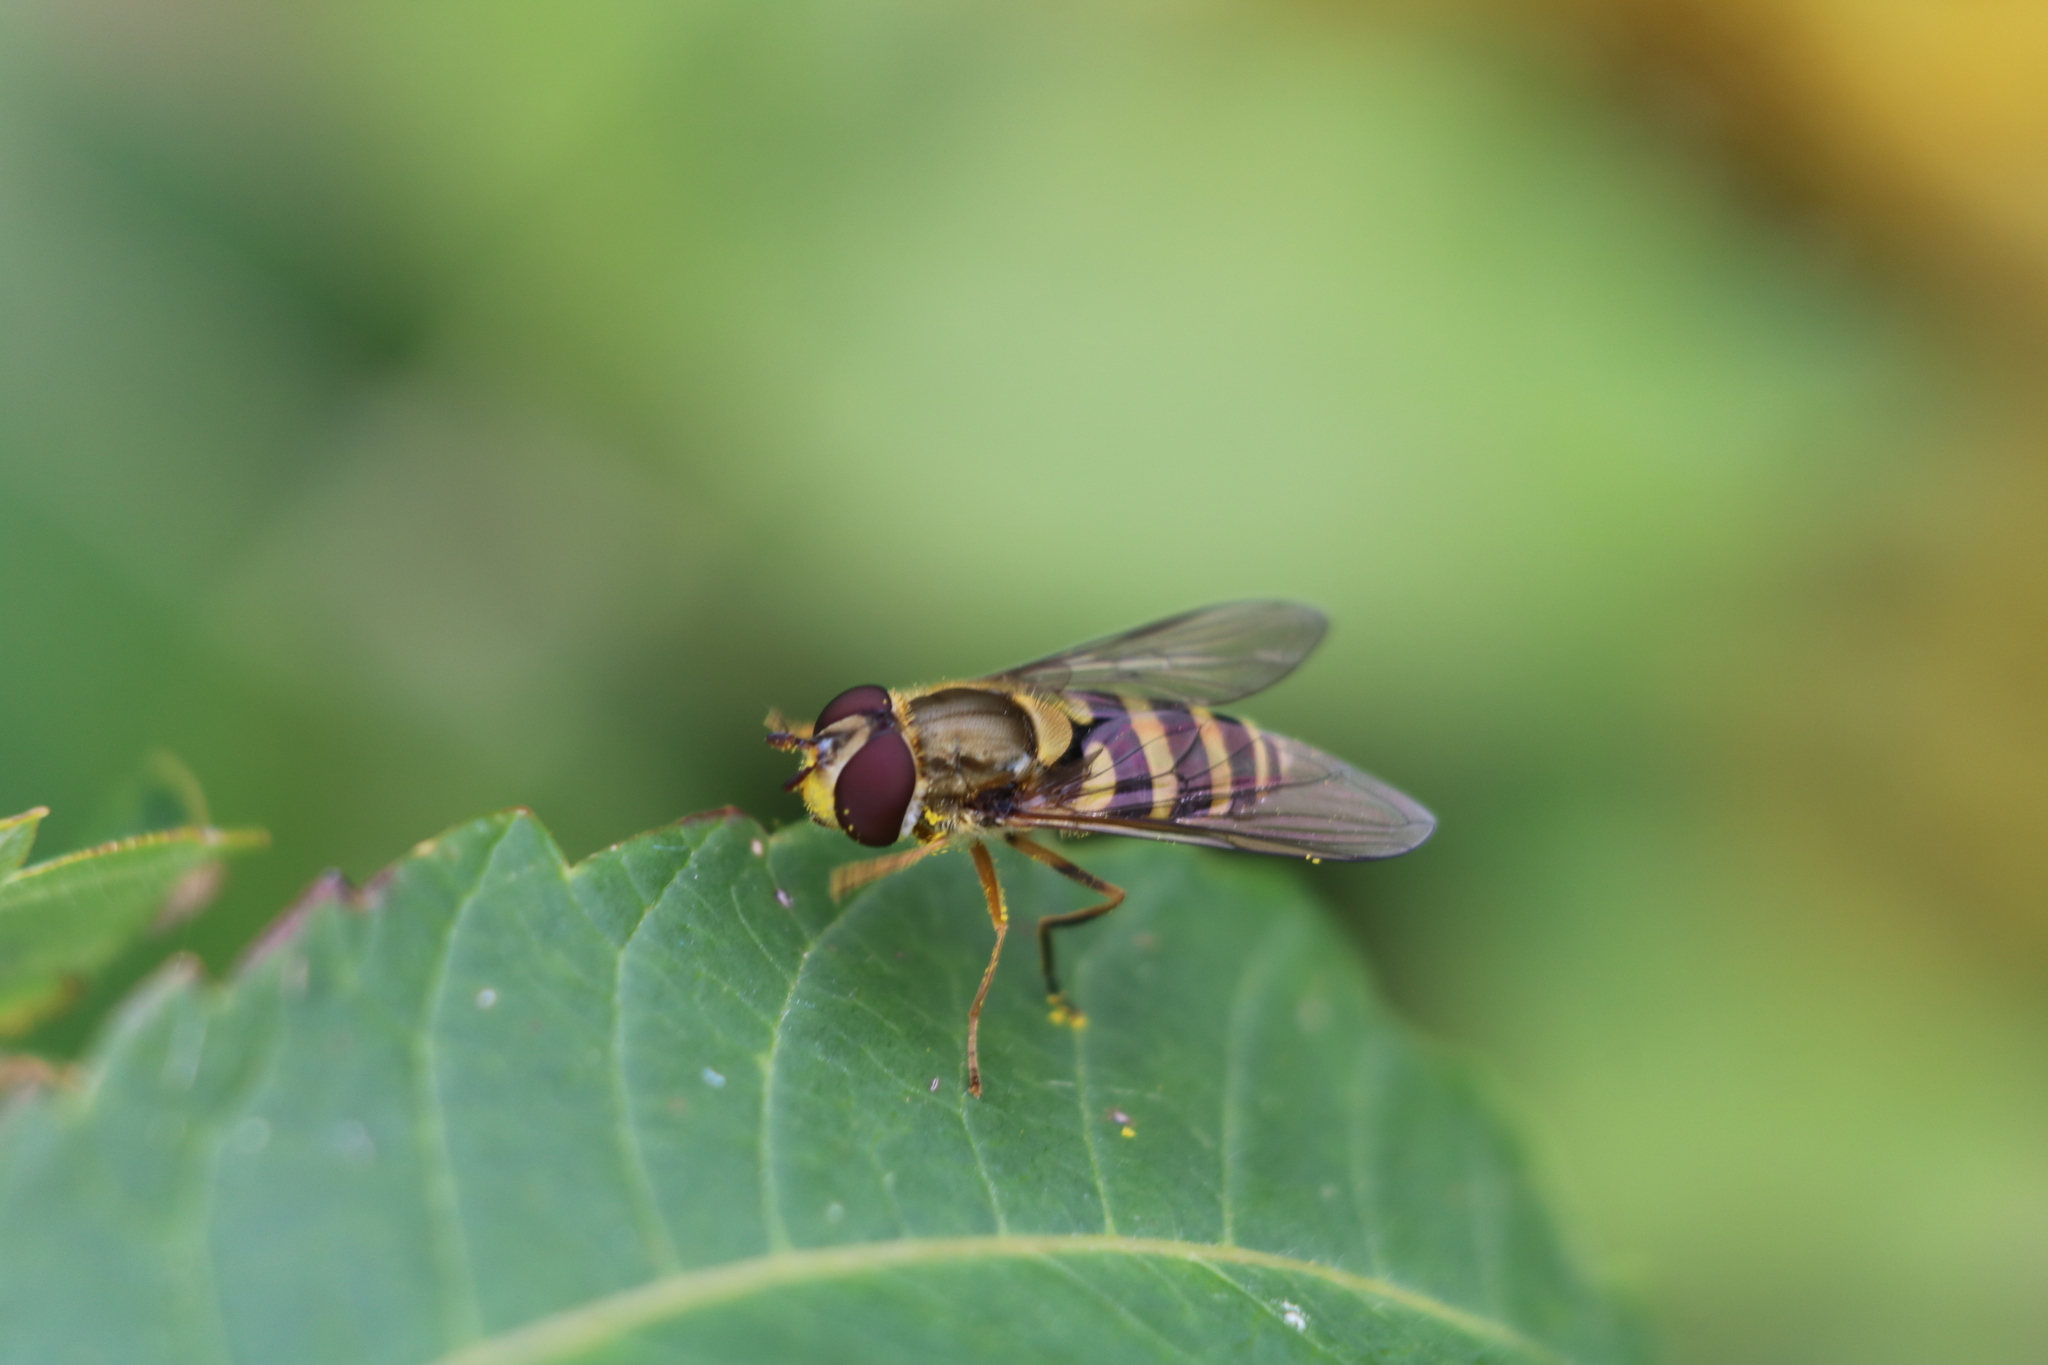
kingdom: Animalia
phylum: Arthropoda
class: Insecta
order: Diptera
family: Syrphidae
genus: Syrphus
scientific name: Syrphus rectus
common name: Yellow-legged flower fly
